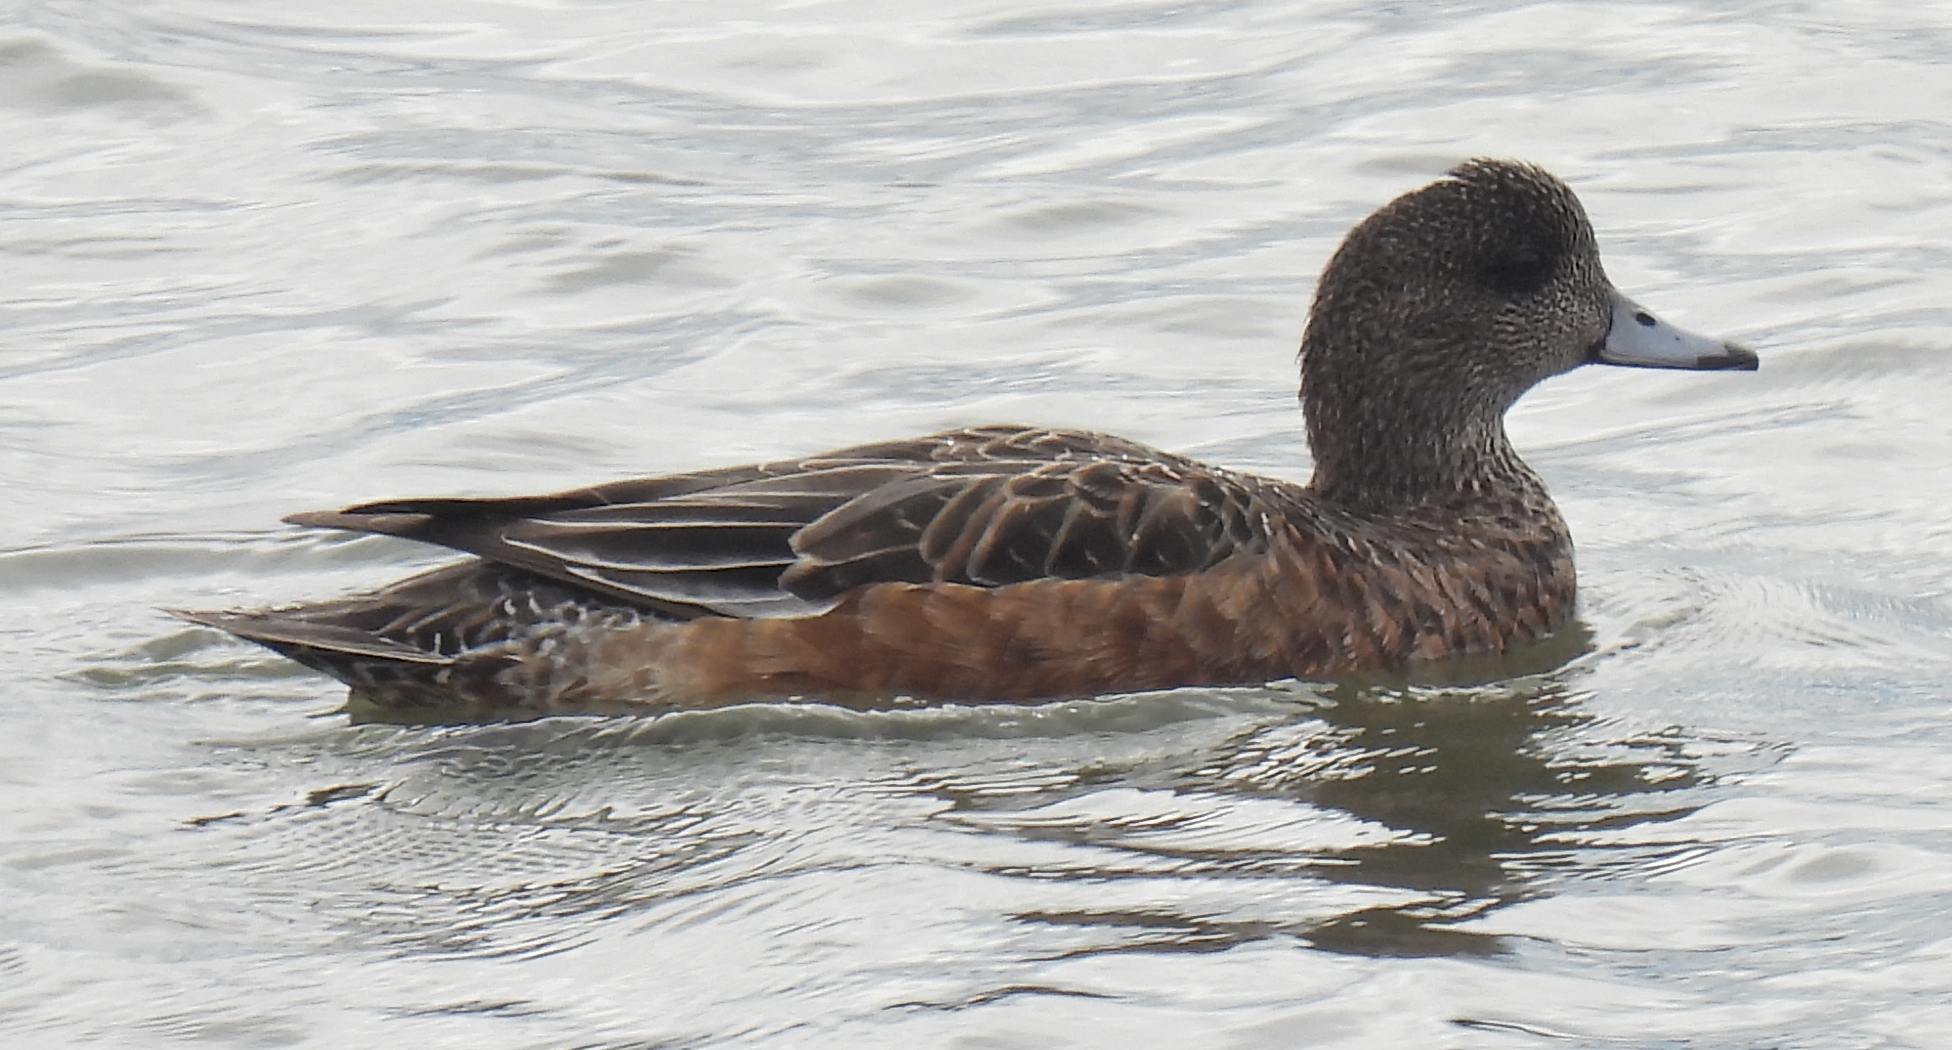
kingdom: Animalia
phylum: Chordata
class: Aves
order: Anseriformes
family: Anatidae
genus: Mareca
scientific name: Mareca americana
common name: American wigeon
